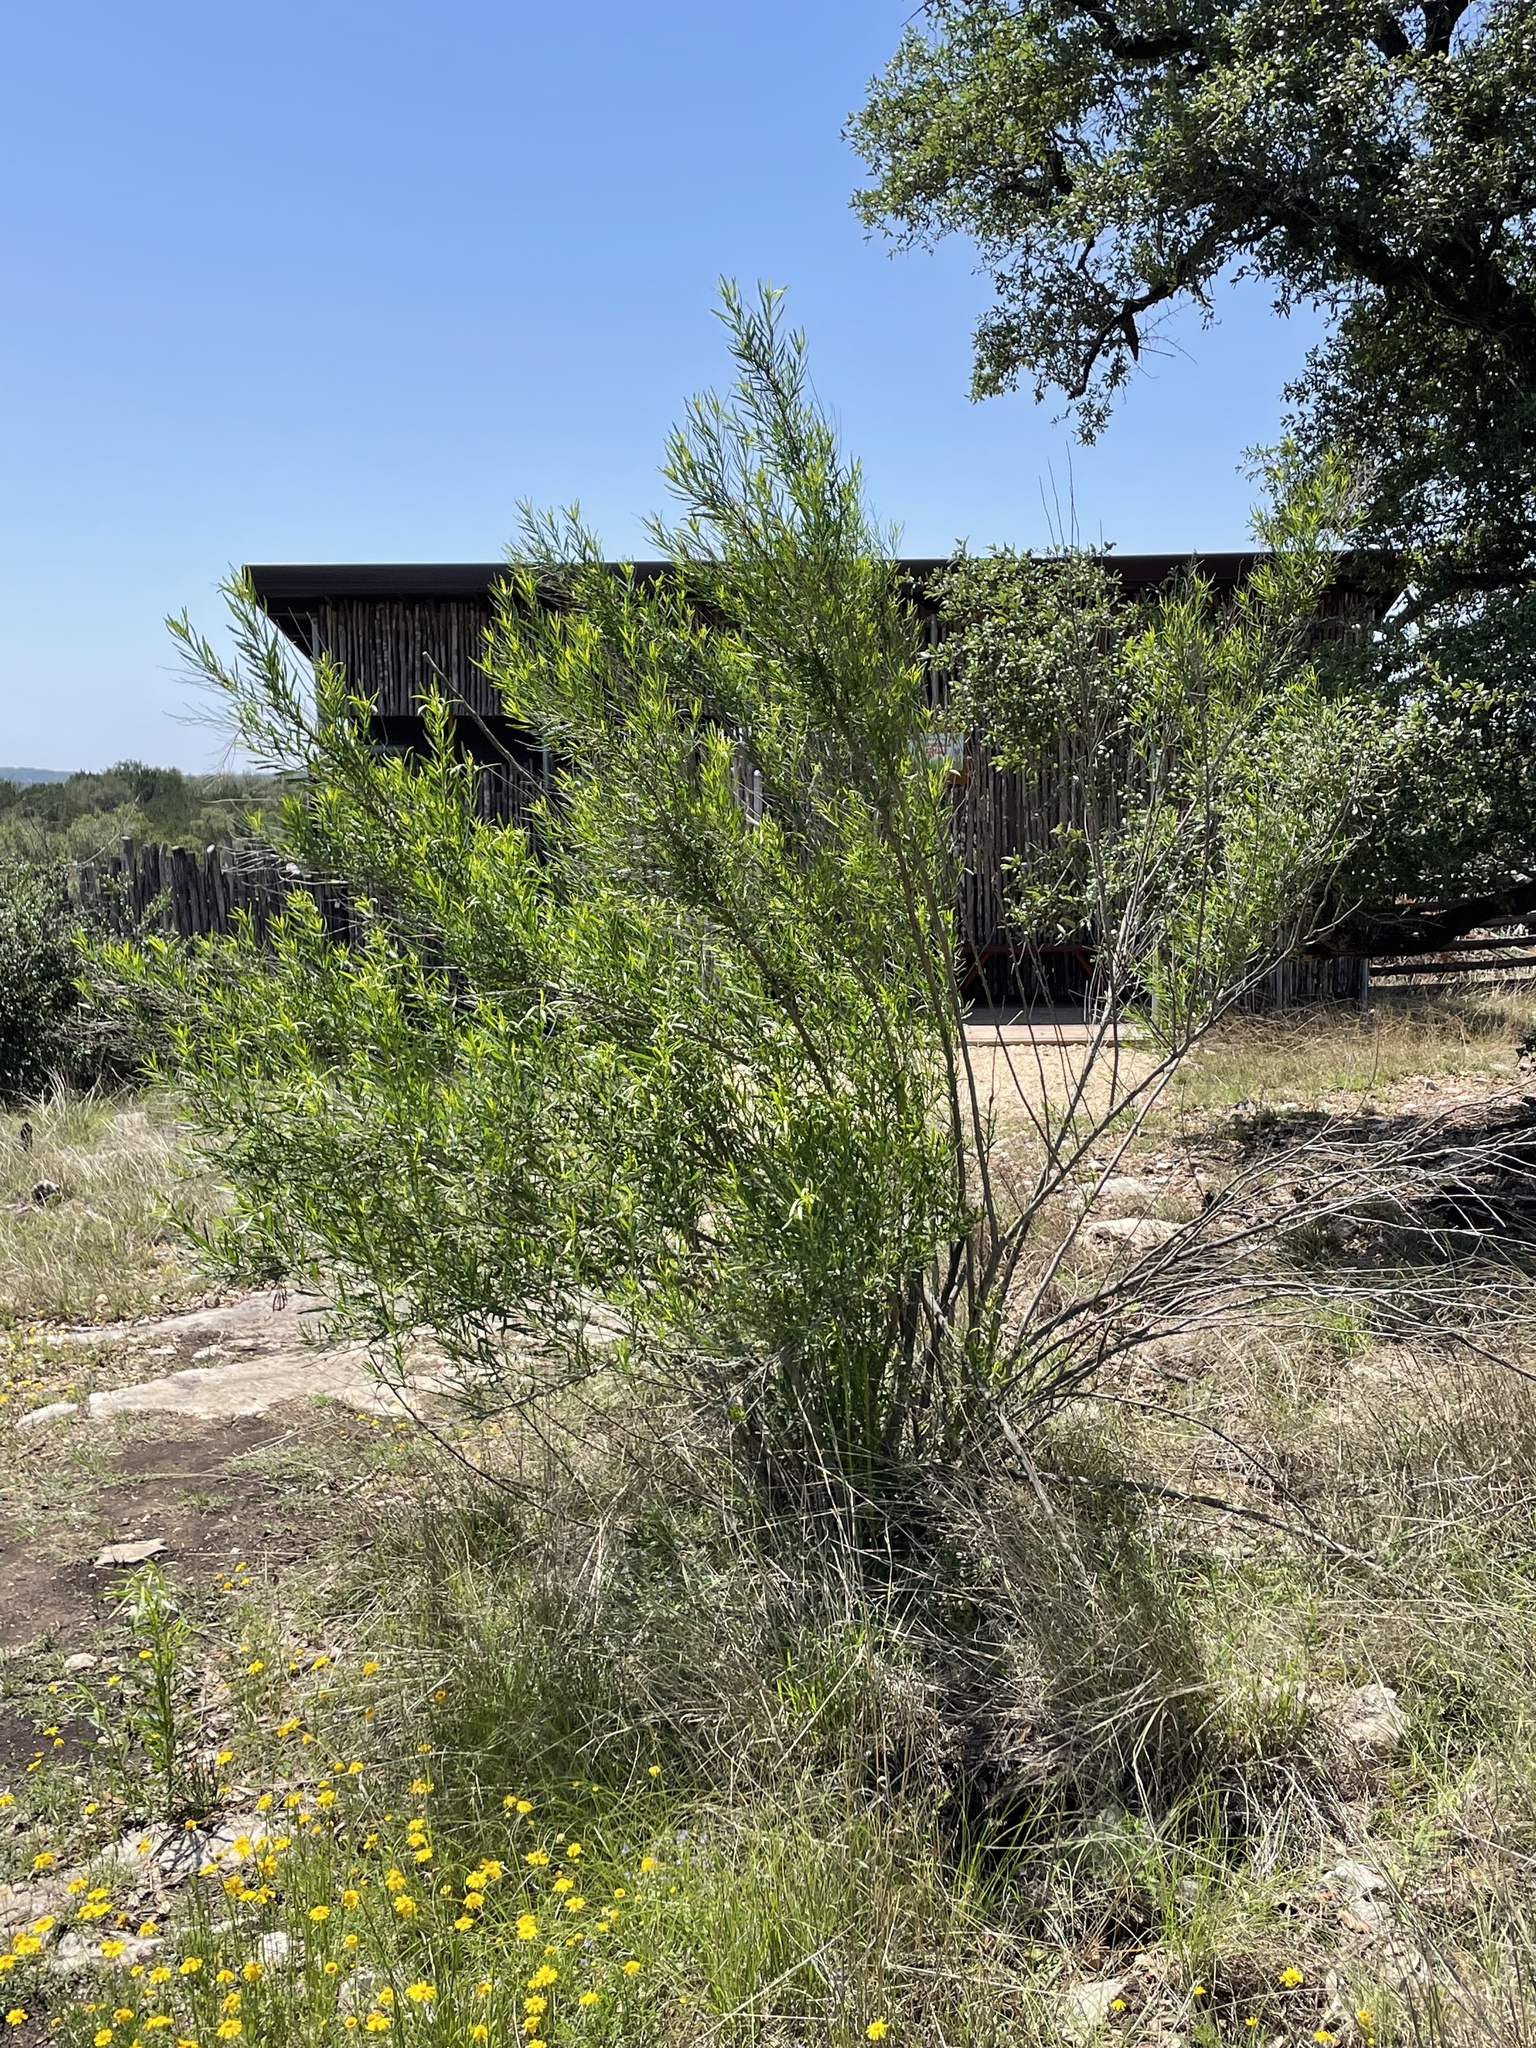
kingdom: Plantae
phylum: Tracheophyta
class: Magnoliopsida
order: Asterales
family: Asteraceae
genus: Baccharis
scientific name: Baccharis neglecta
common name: Roosevelt-weed
